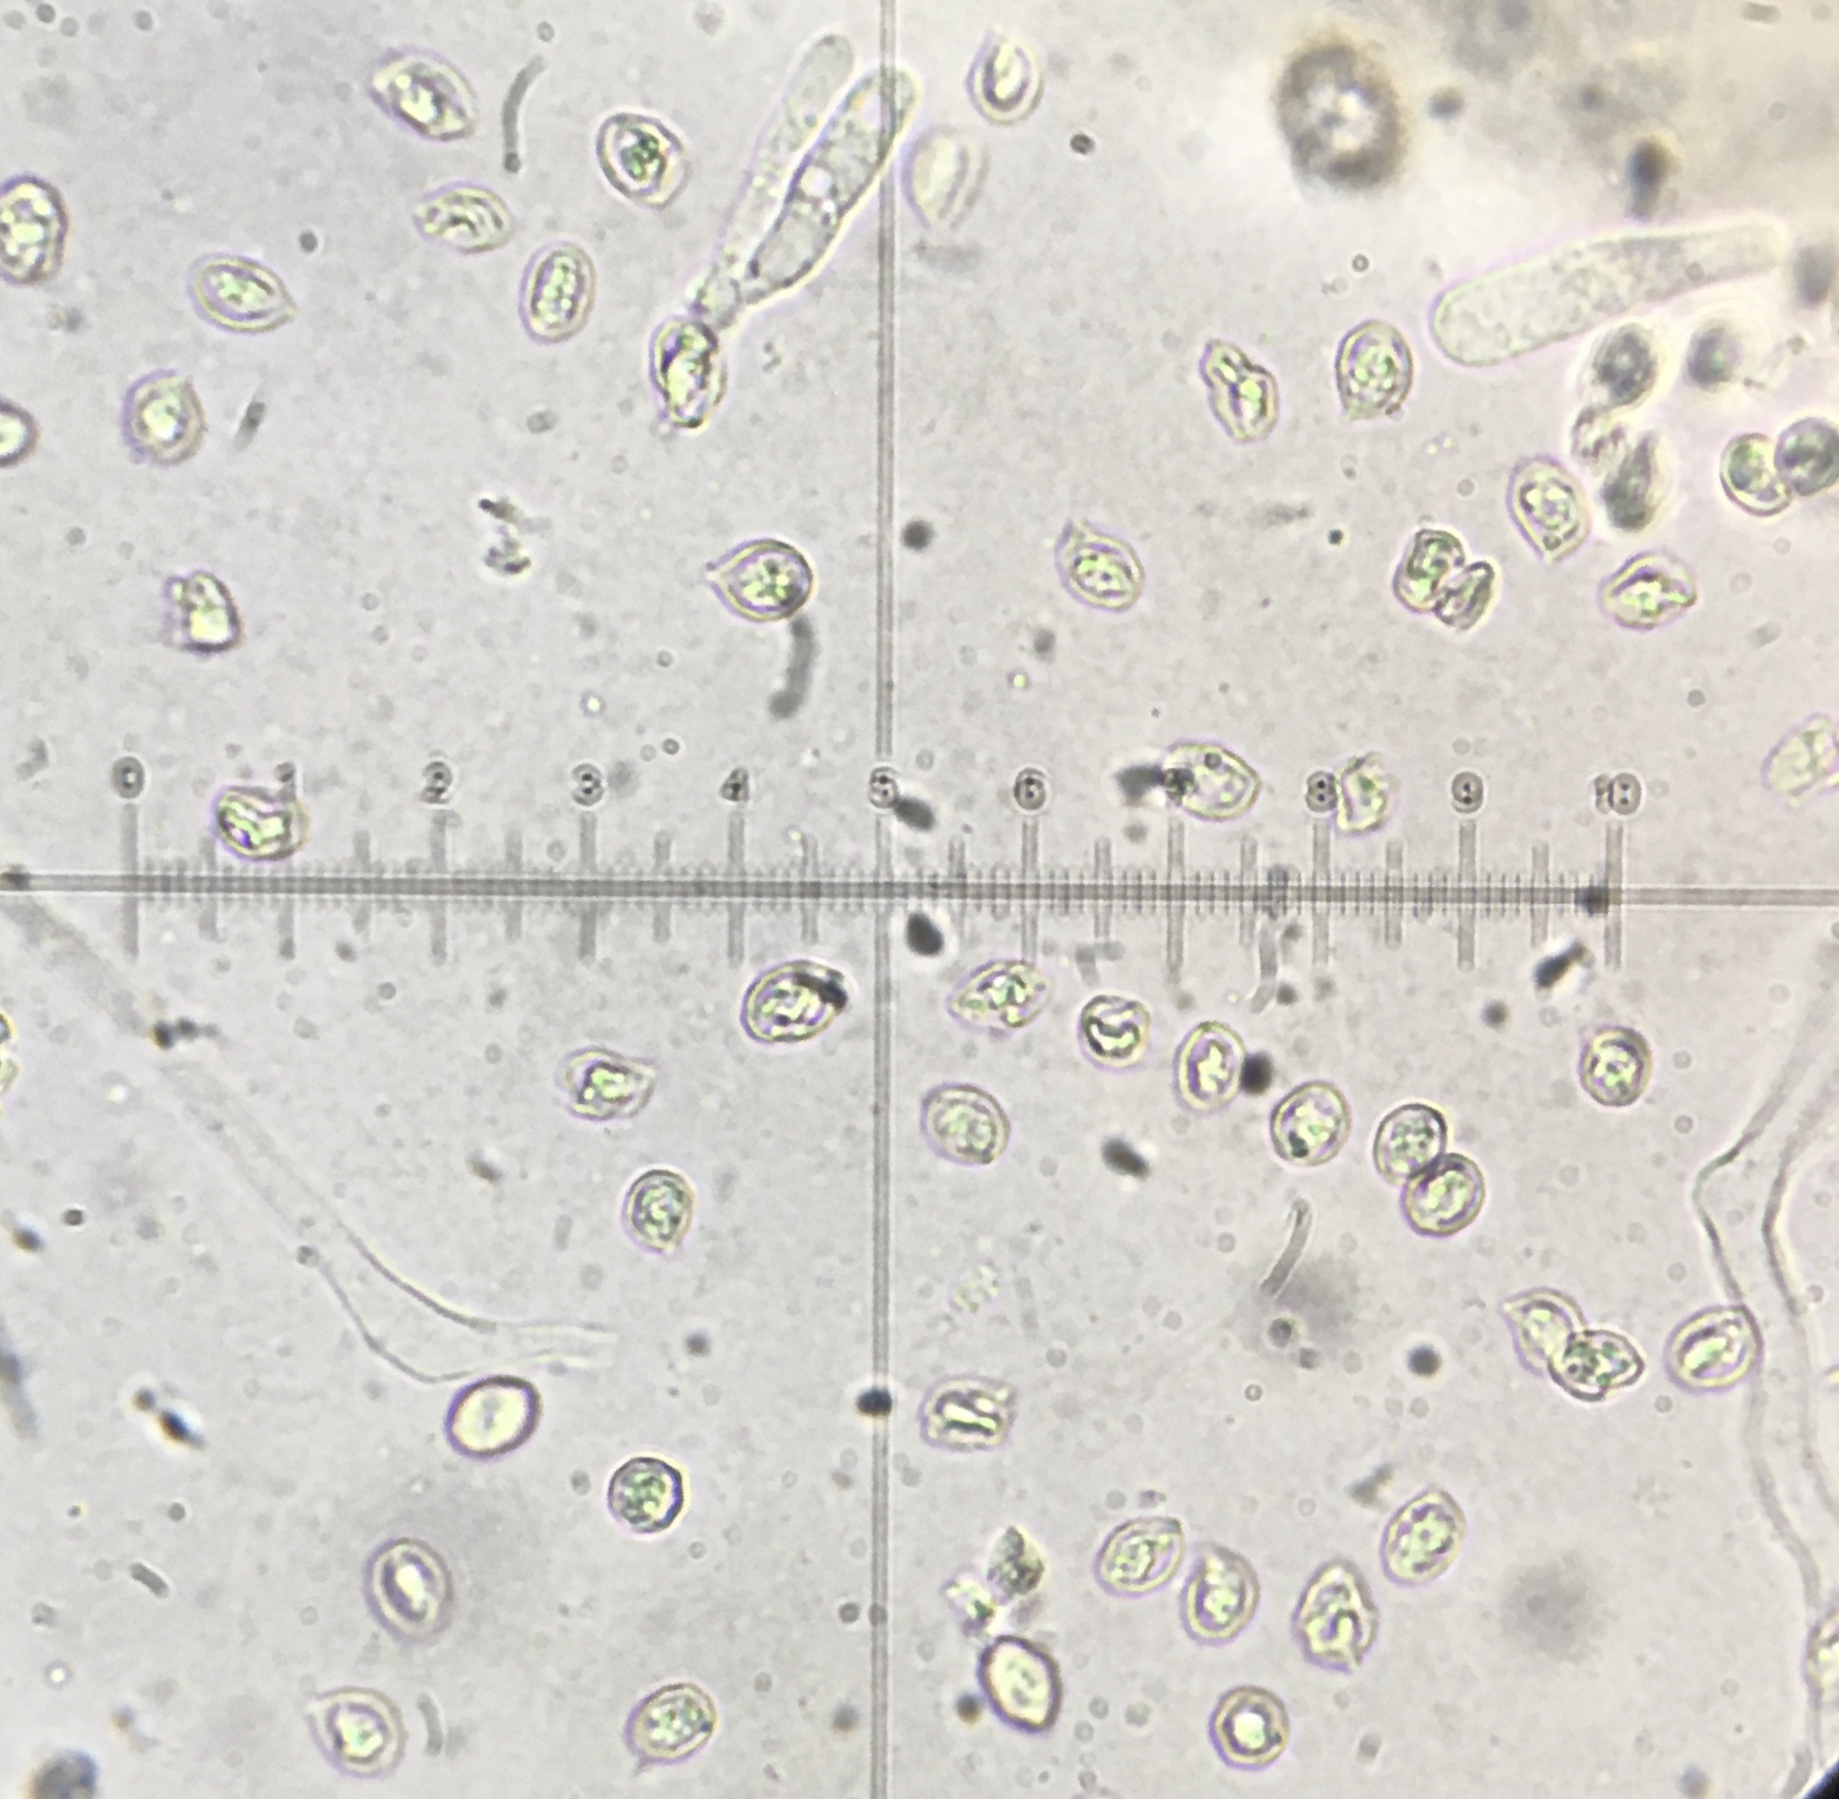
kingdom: Fungi
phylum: Basidiomycota
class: Agaricomycetes
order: Agaricales
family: Entolomataceae
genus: Rhodocybe
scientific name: Rhodocybe roseiavellanea
